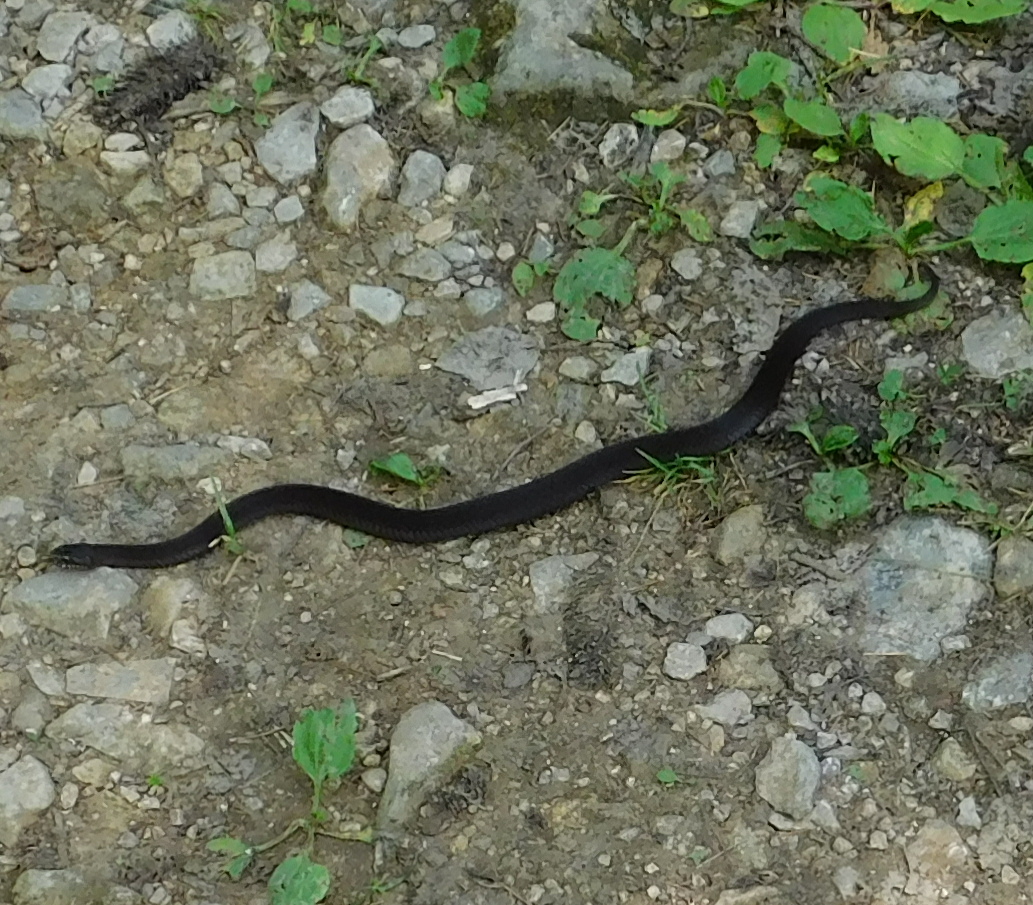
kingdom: Animalia
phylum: Chordata
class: Squamata
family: Viperidae
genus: Vipera
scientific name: Vipera berus
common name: Adder
